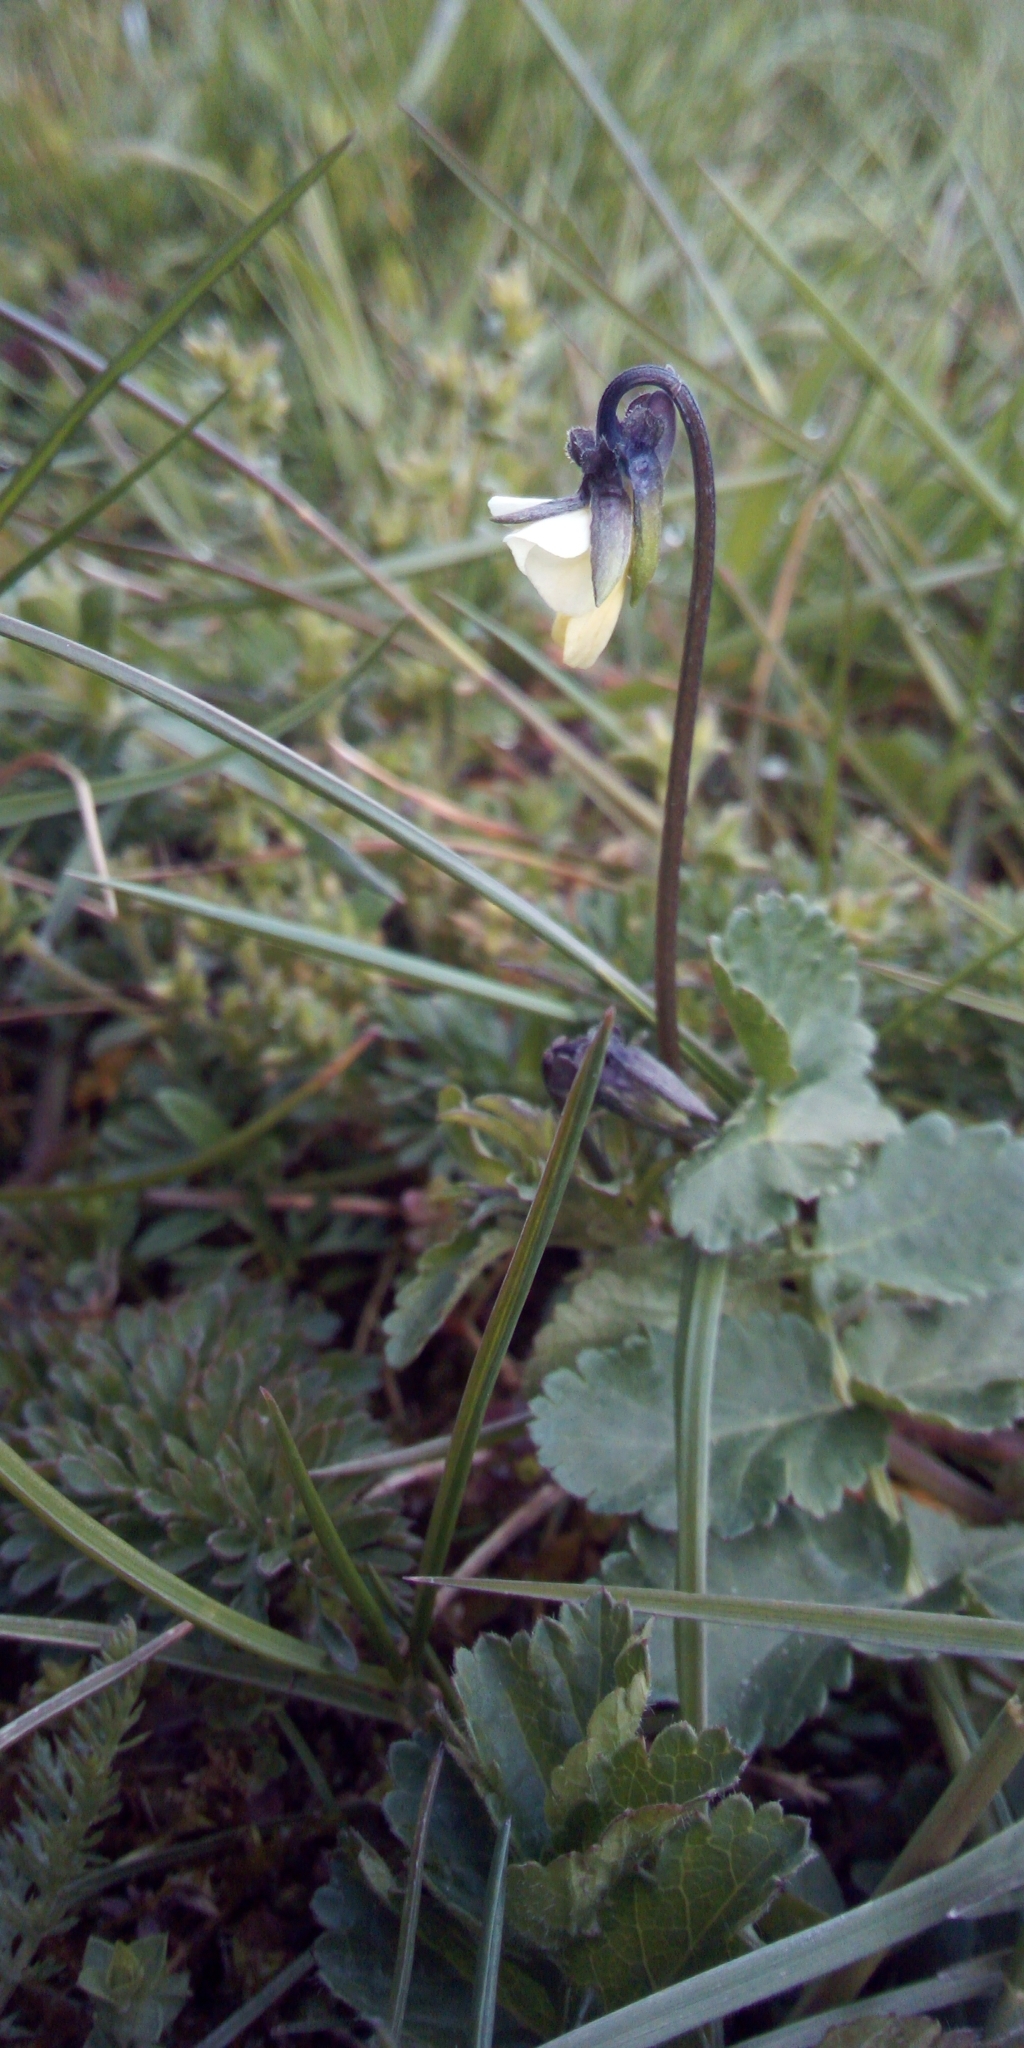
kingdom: Plantae
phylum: Tracheophyta
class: Magnoliopsida
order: Malpighiales
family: Violaceae
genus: Viola
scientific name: Viola arvensis
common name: Field pansy
